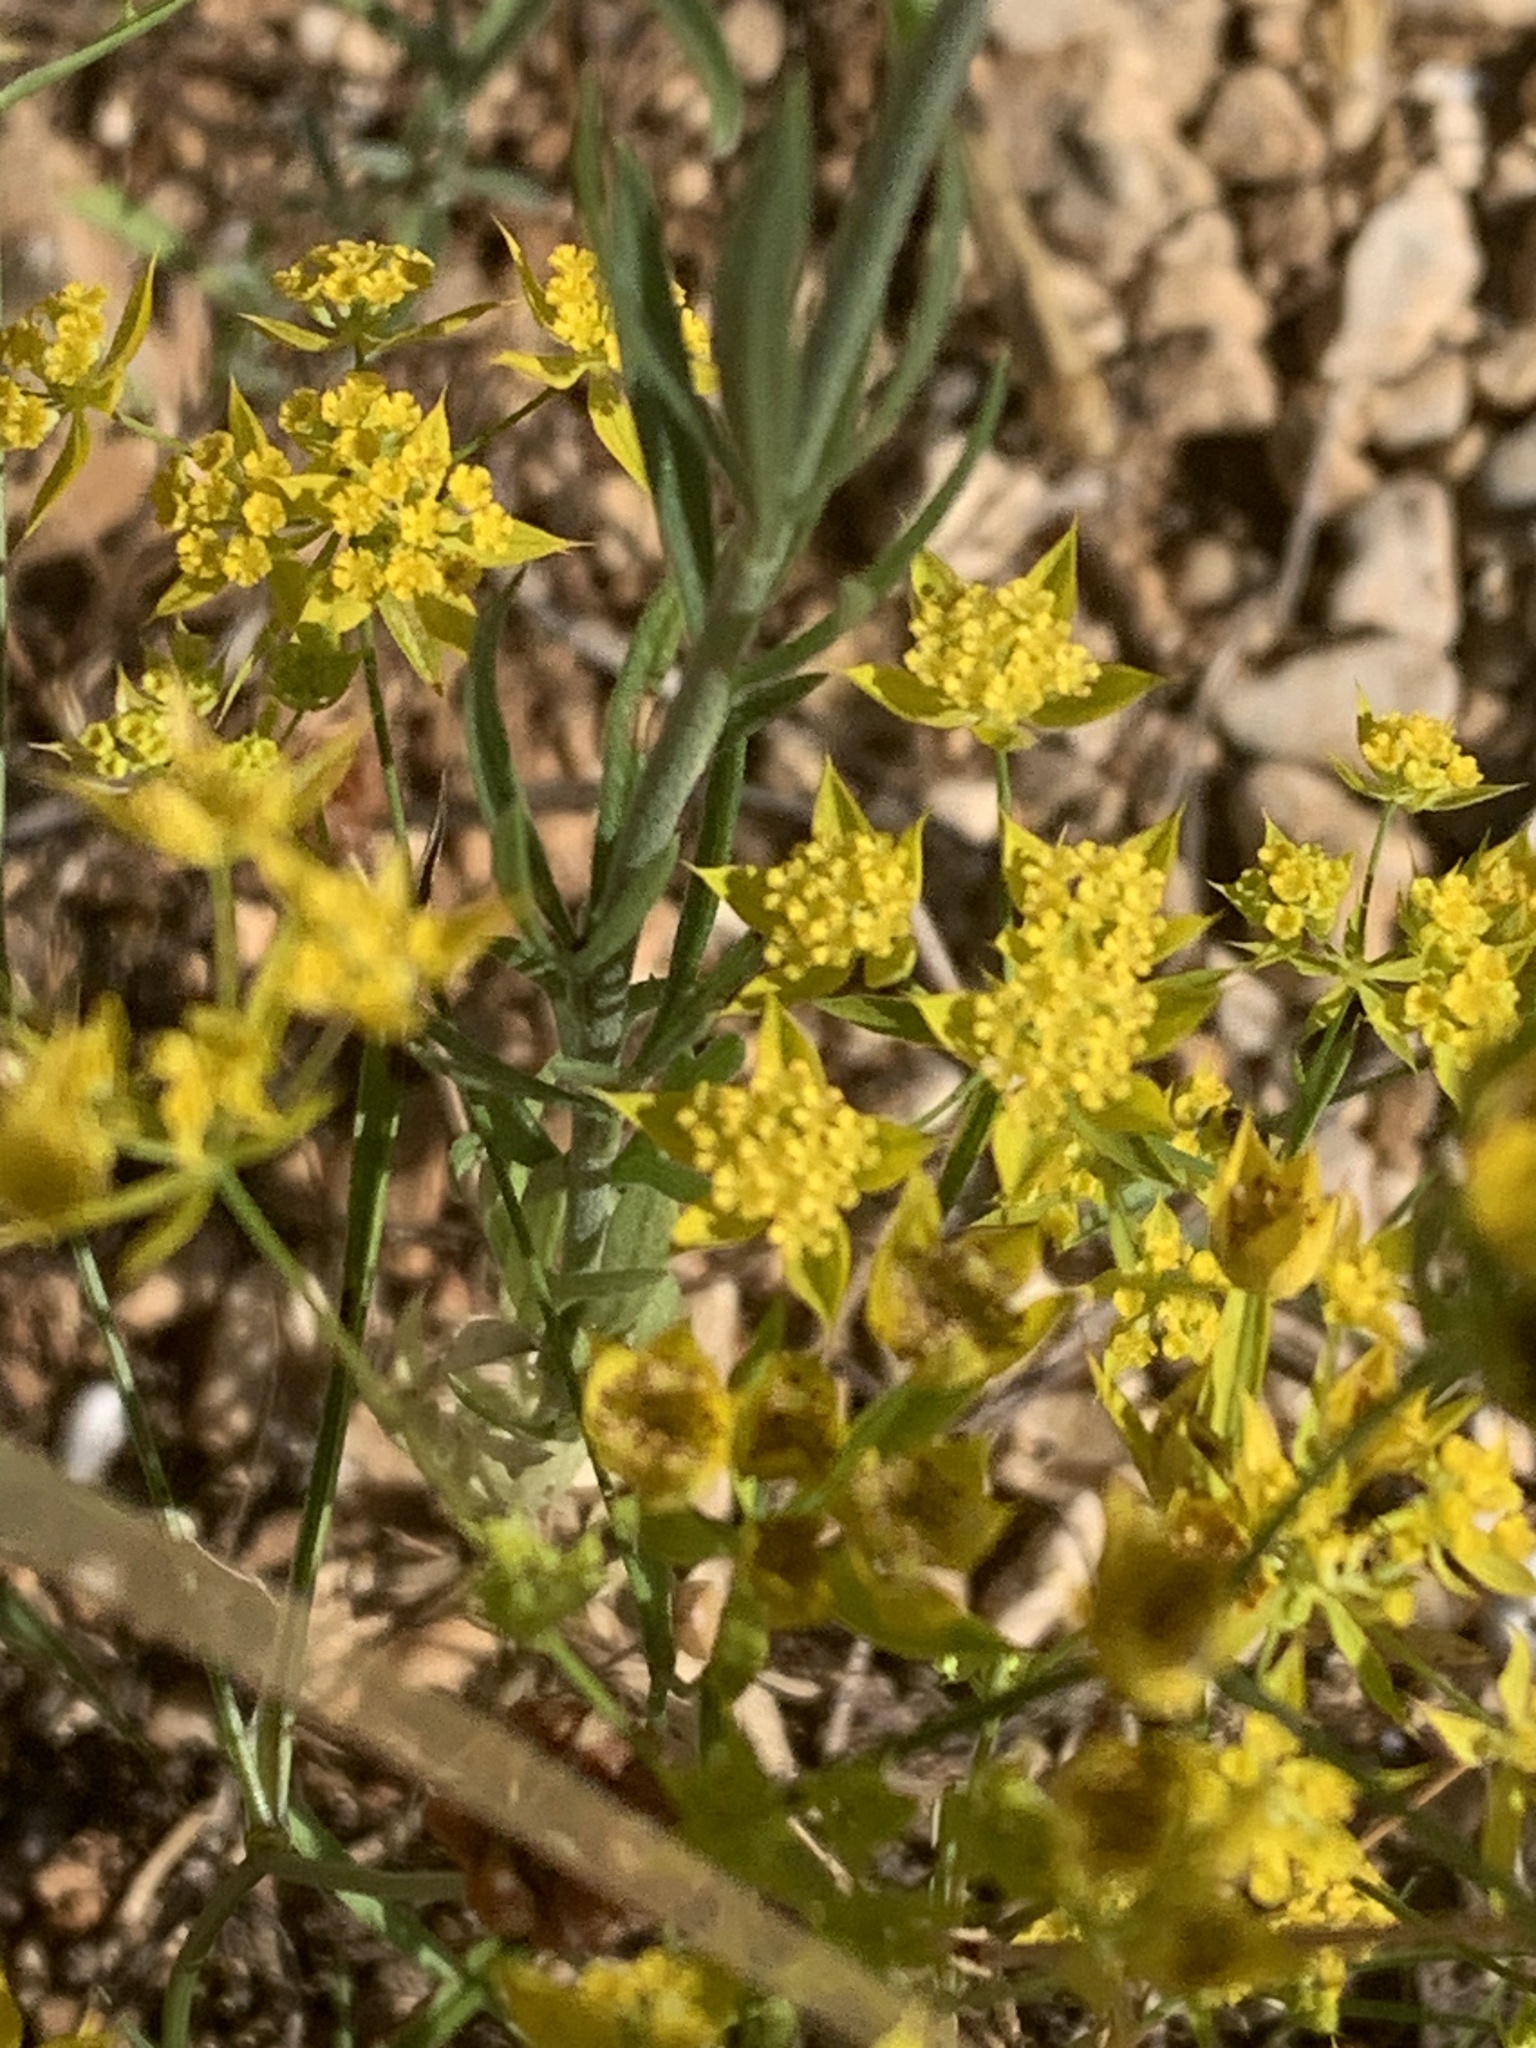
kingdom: Plantae
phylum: Tracheophyta
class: Magnoliopsida
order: Gentianales
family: Rubiaceae
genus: Galium
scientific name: Galium verum
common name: Lady's bedstraw
